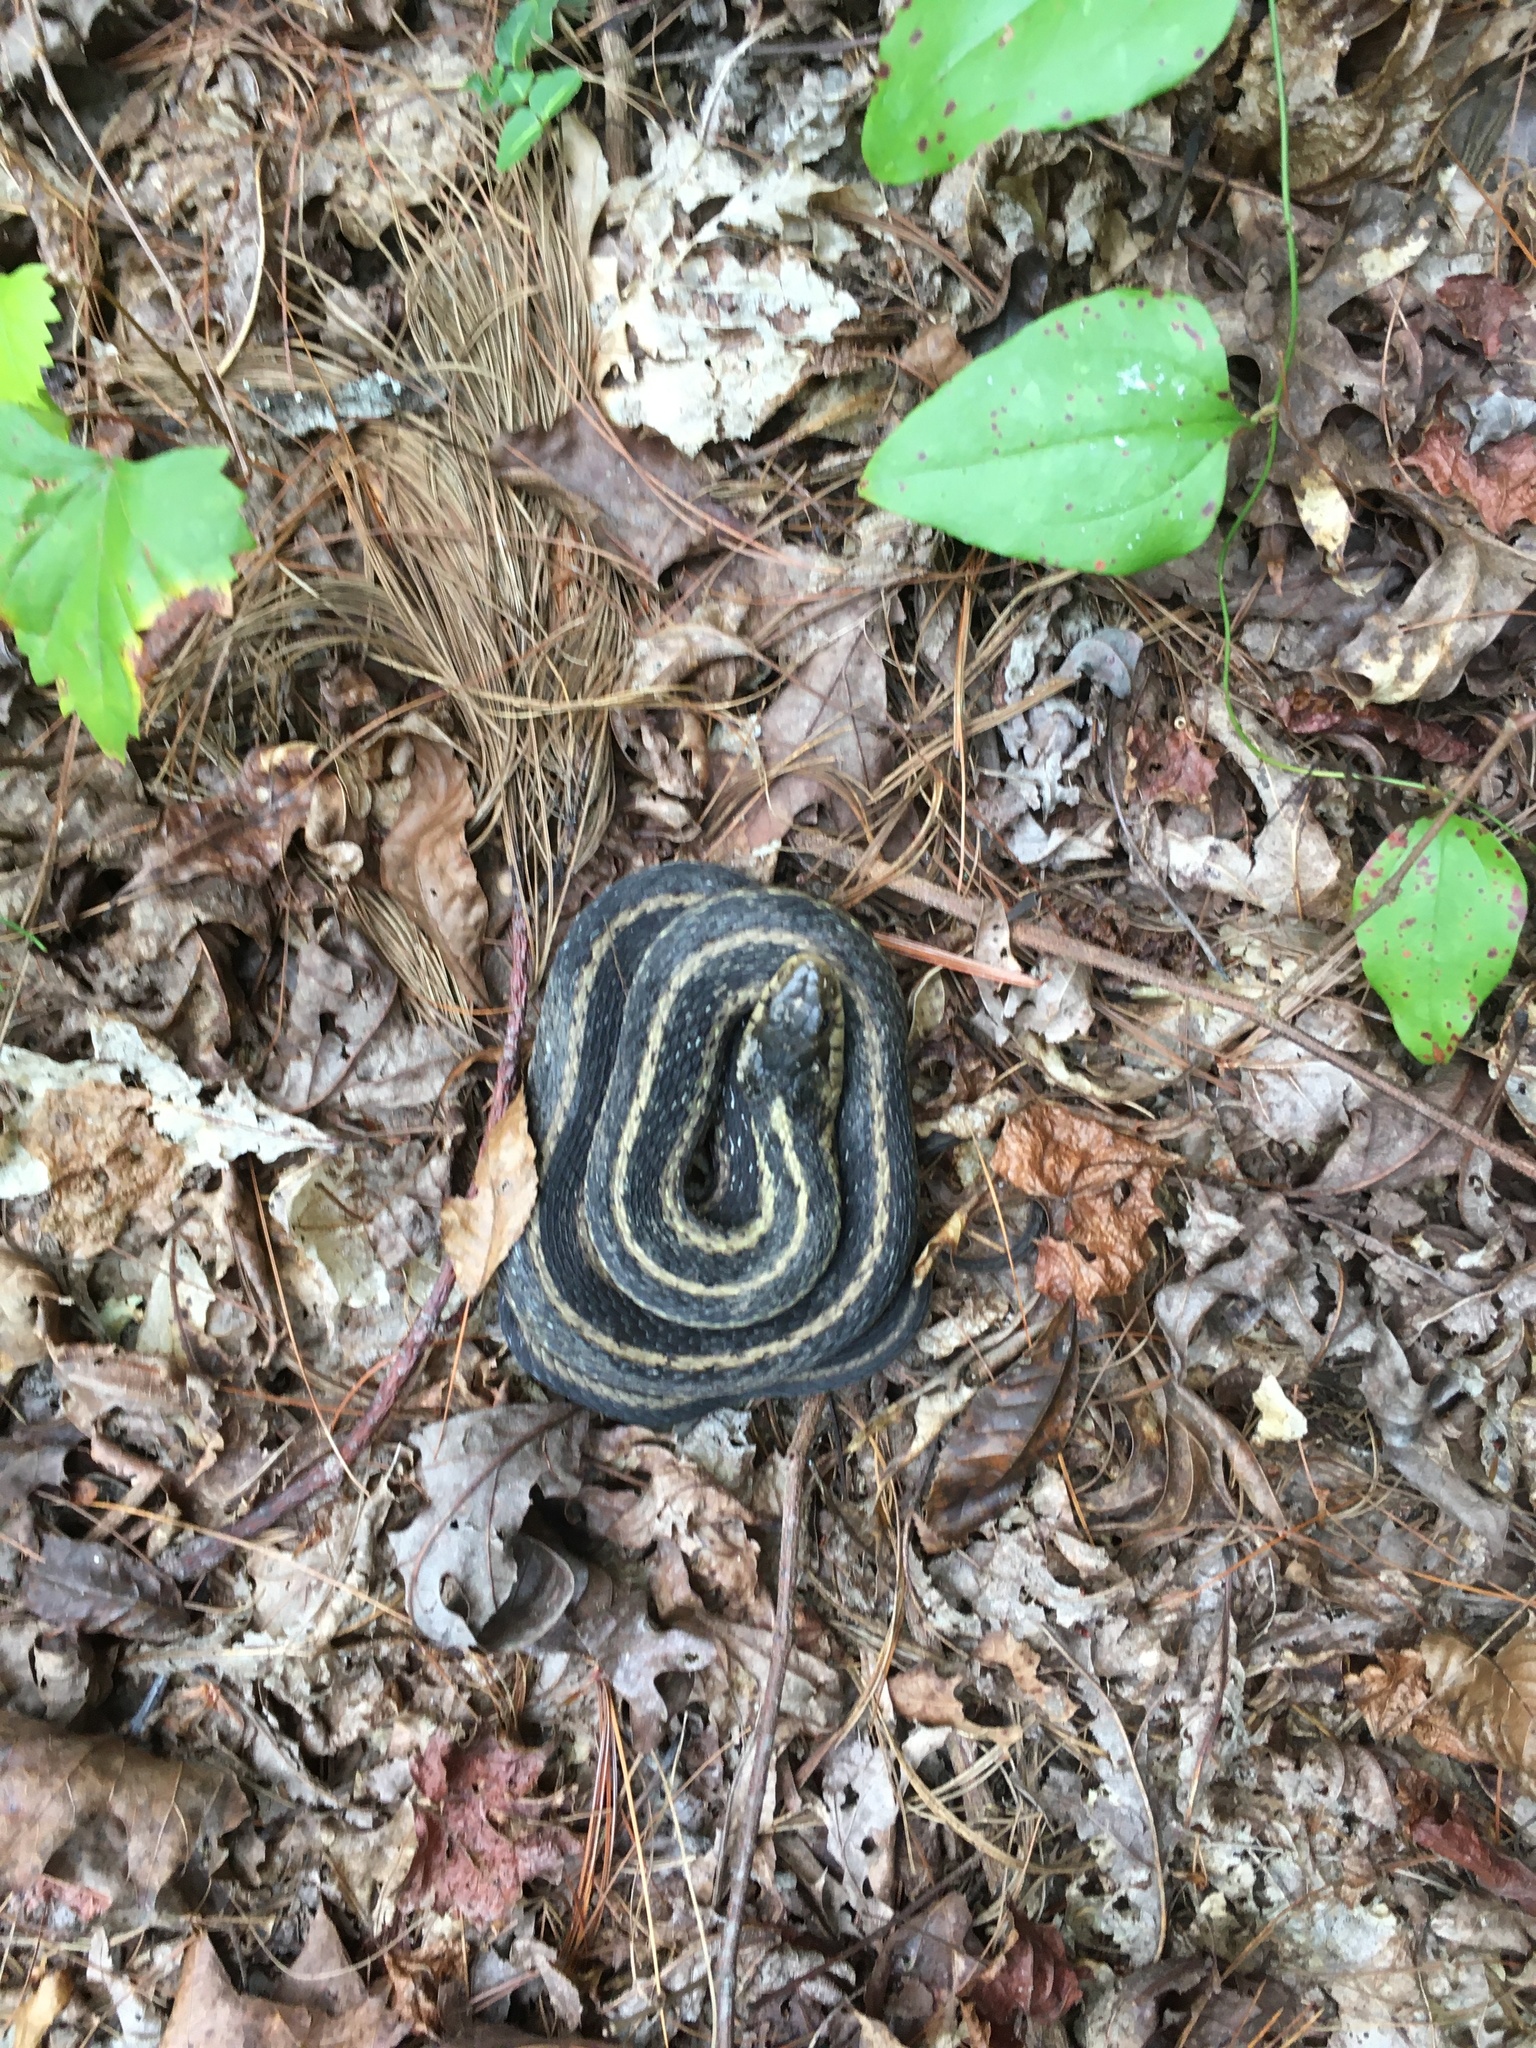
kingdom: Animalia
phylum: Chordata
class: Squamata
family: Colubridae
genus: Thamnophis
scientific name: Thamnophis sirtalis
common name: Common garter snake
